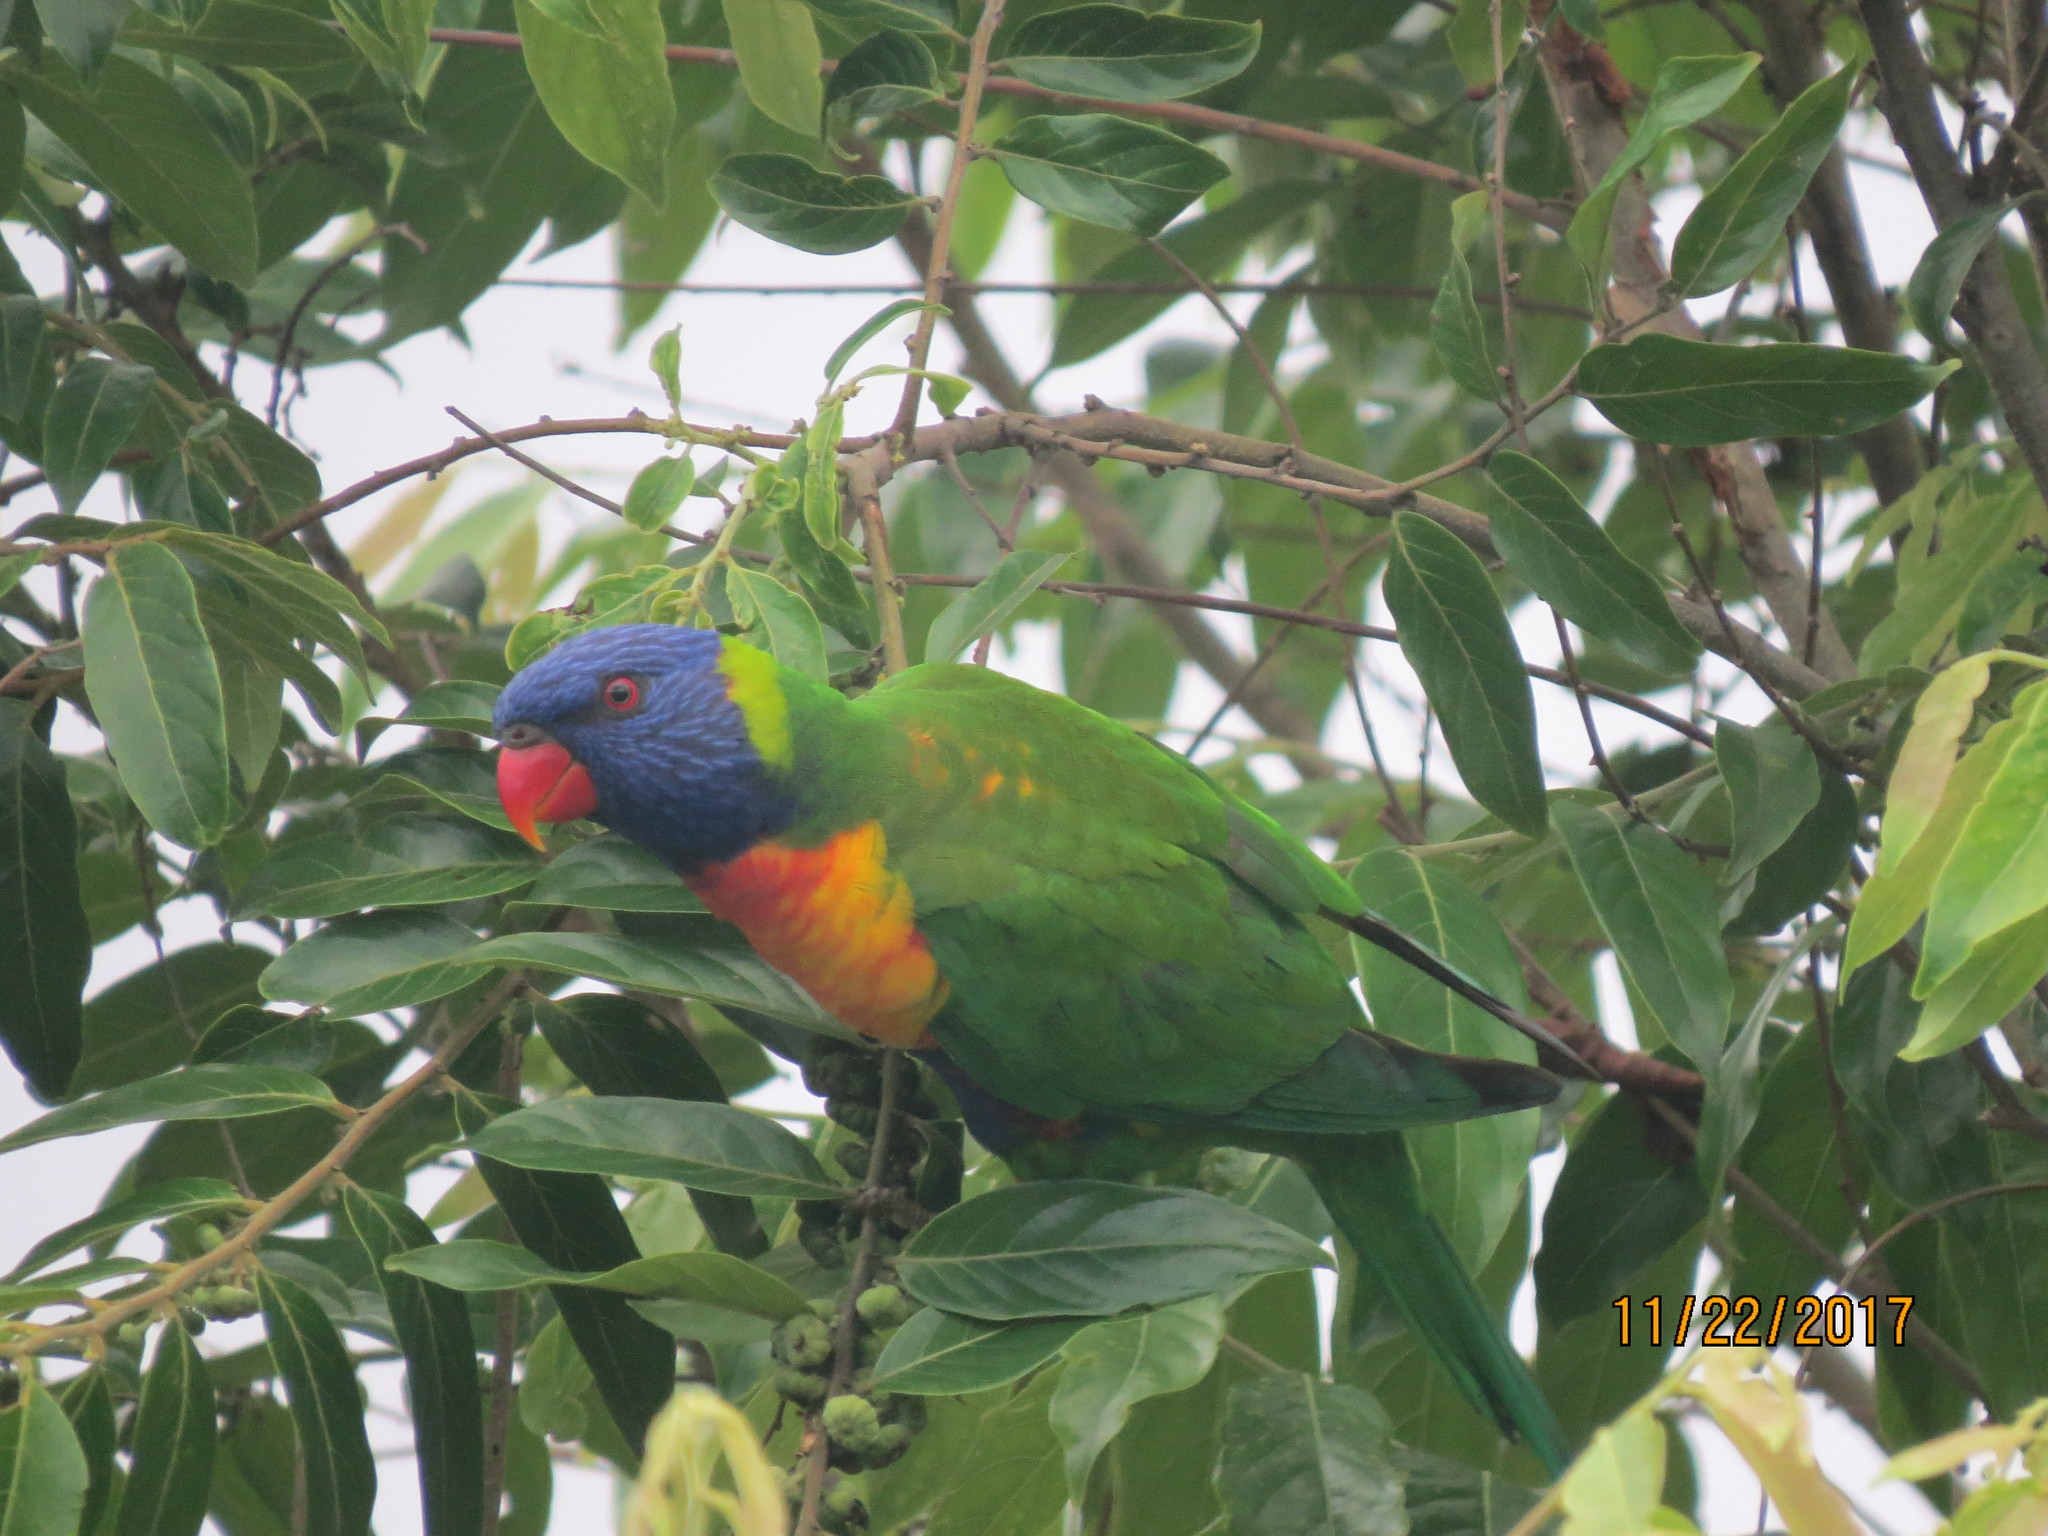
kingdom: Animalia
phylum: Chordata
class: Aves
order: Psittaciformes
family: Psittacidae
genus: Trichoglossus
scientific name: Trichoglossus haematodus
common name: Coconut lorikeet
